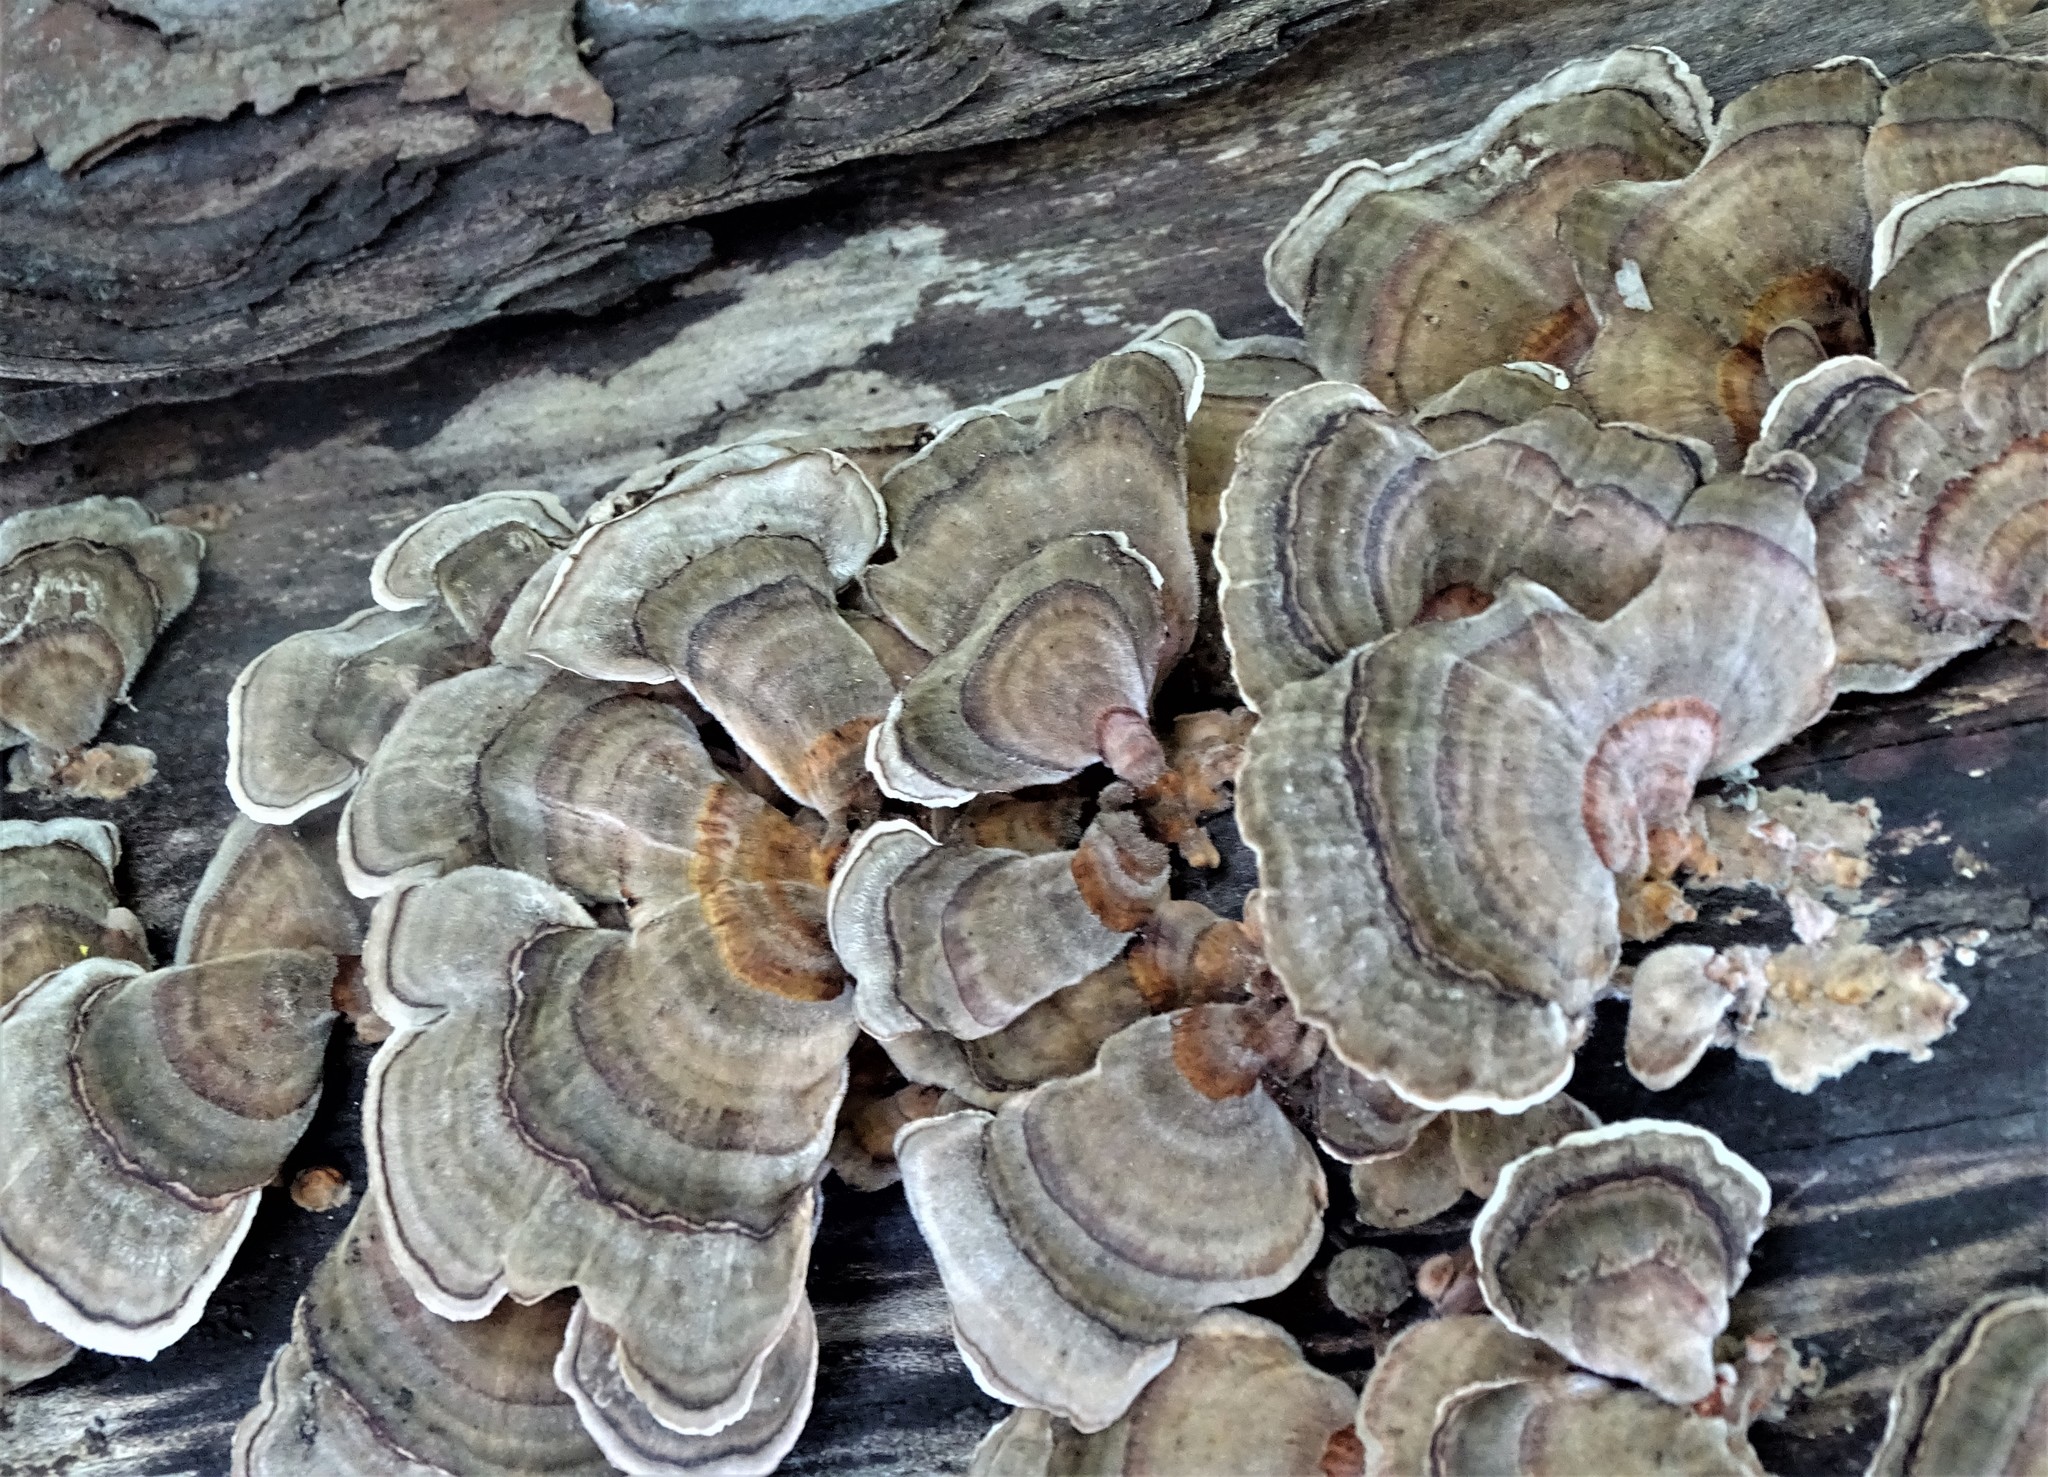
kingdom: Fungi
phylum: Basidiomycota
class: Agaricomycetes
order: Polyporales
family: Polyporaceae
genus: Trametes
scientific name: Trametes versicolor
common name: Turkeytail
